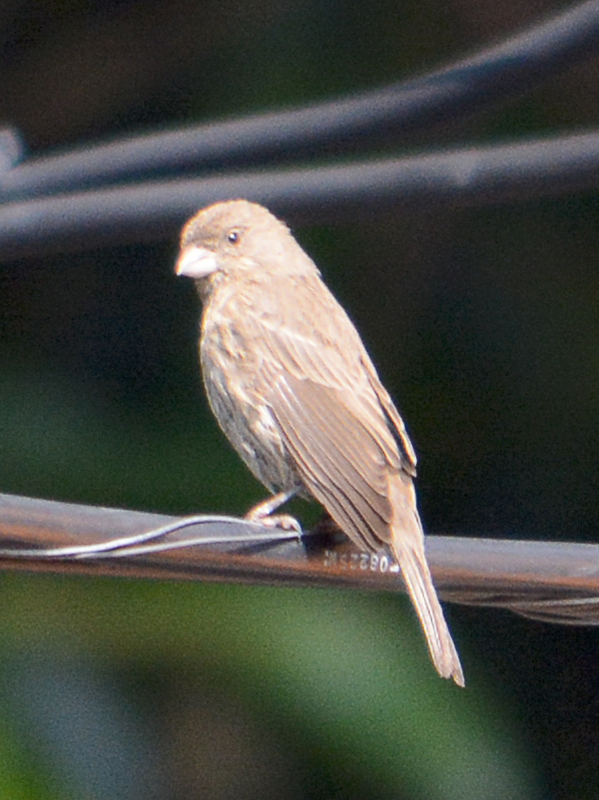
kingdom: Animalia
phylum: Chordata
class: Aves
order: Passeriformes
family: Fringillidae
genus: Haemorhous
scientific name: Haemorhous mexicanus
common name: House finch
